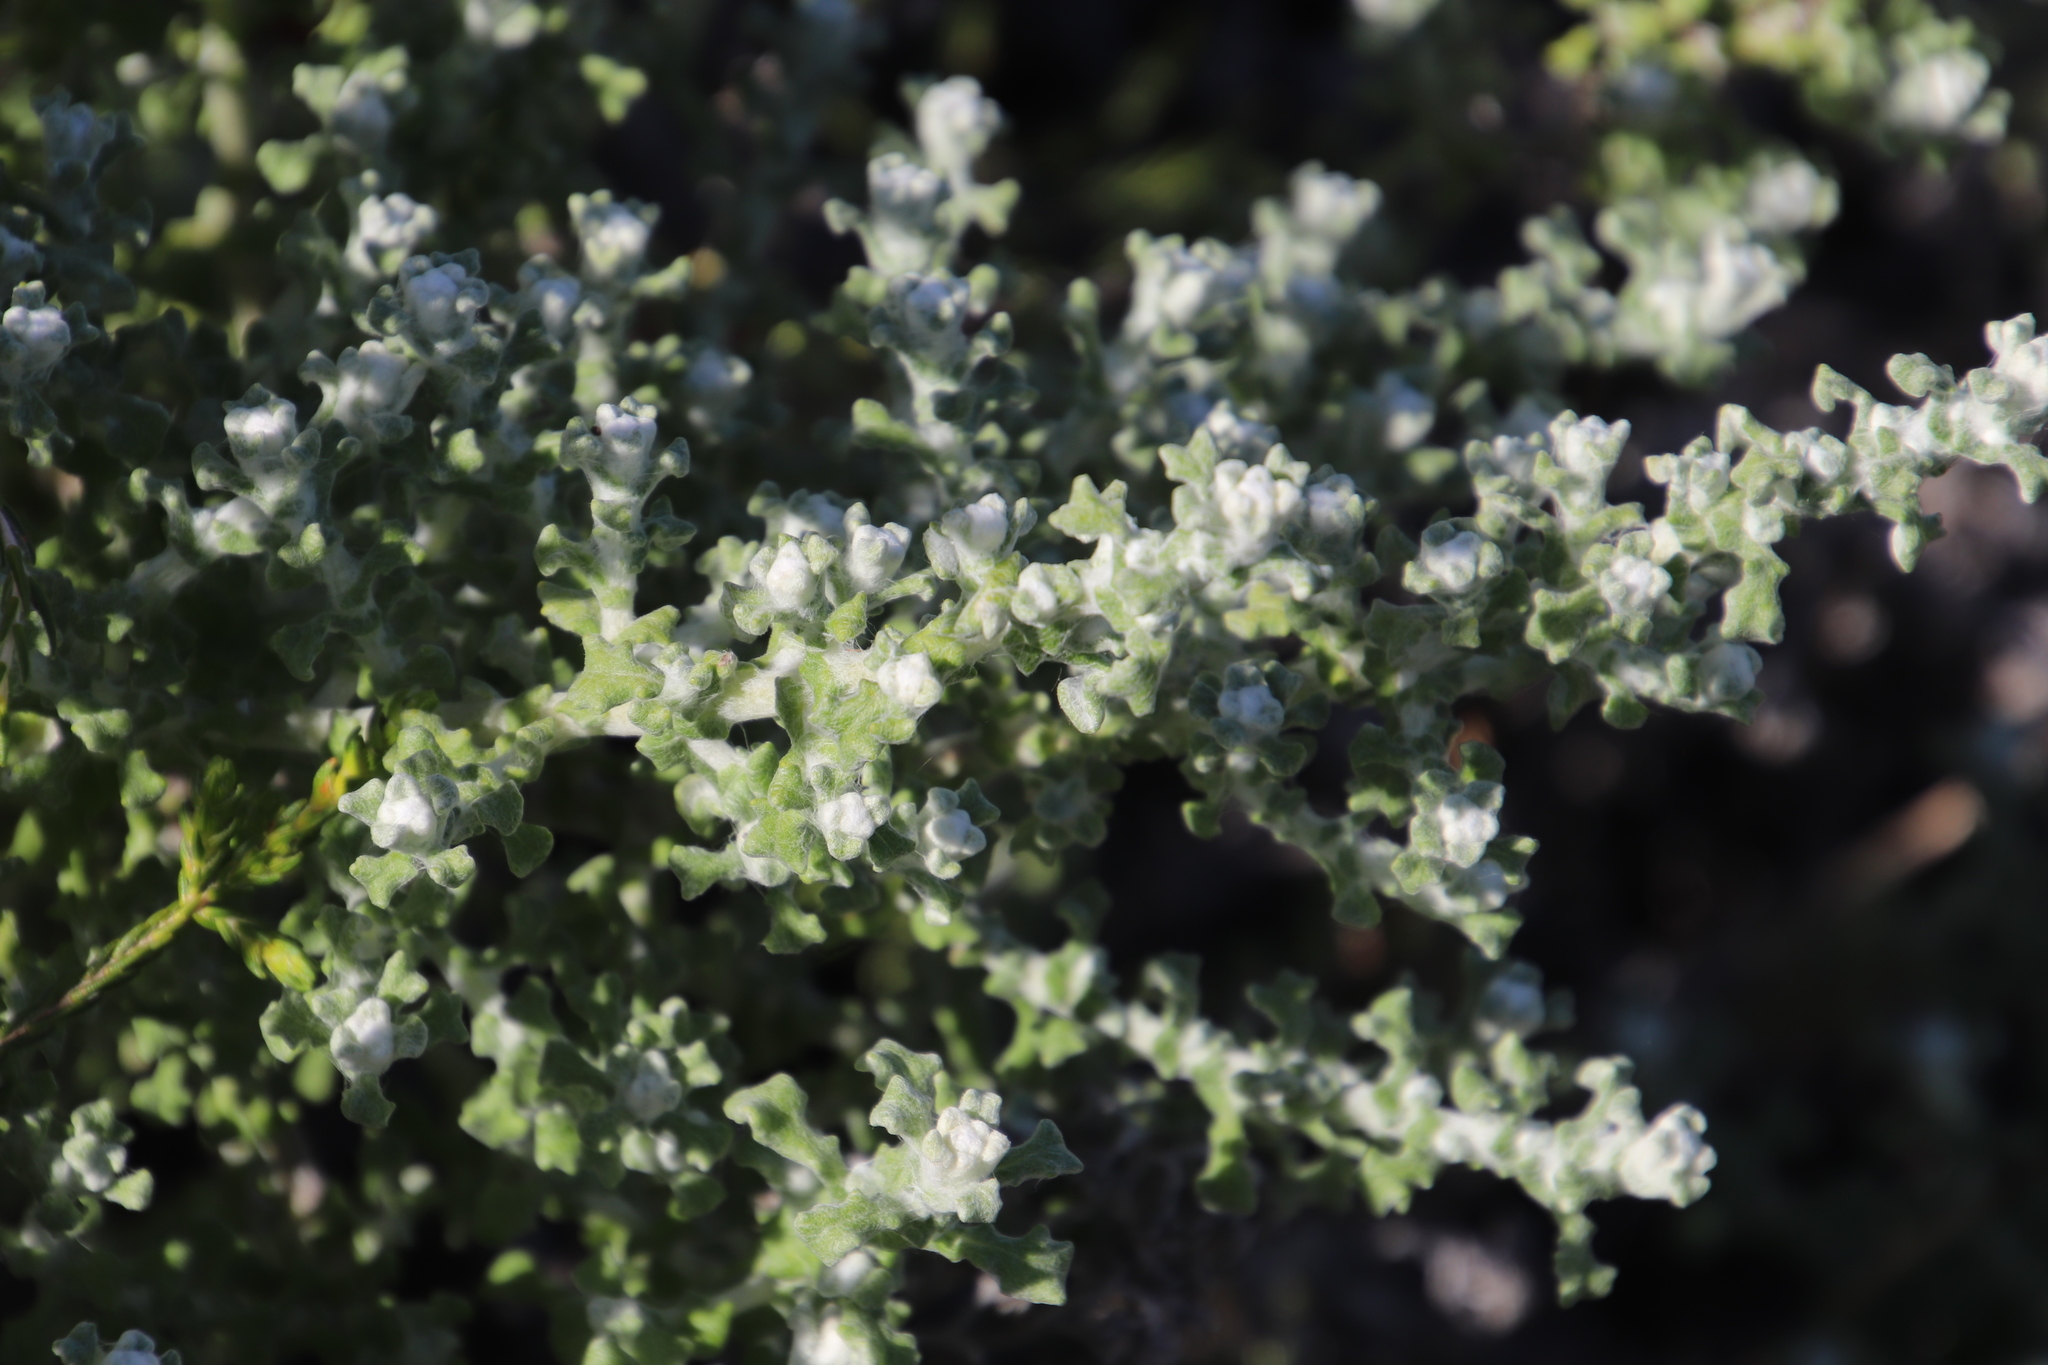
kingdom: Plantae
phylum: Tracheophyta
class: Magnoliopsida
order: Asterales
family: Asteraceae
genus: Helichrysum
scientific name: Helichrysum patulum
